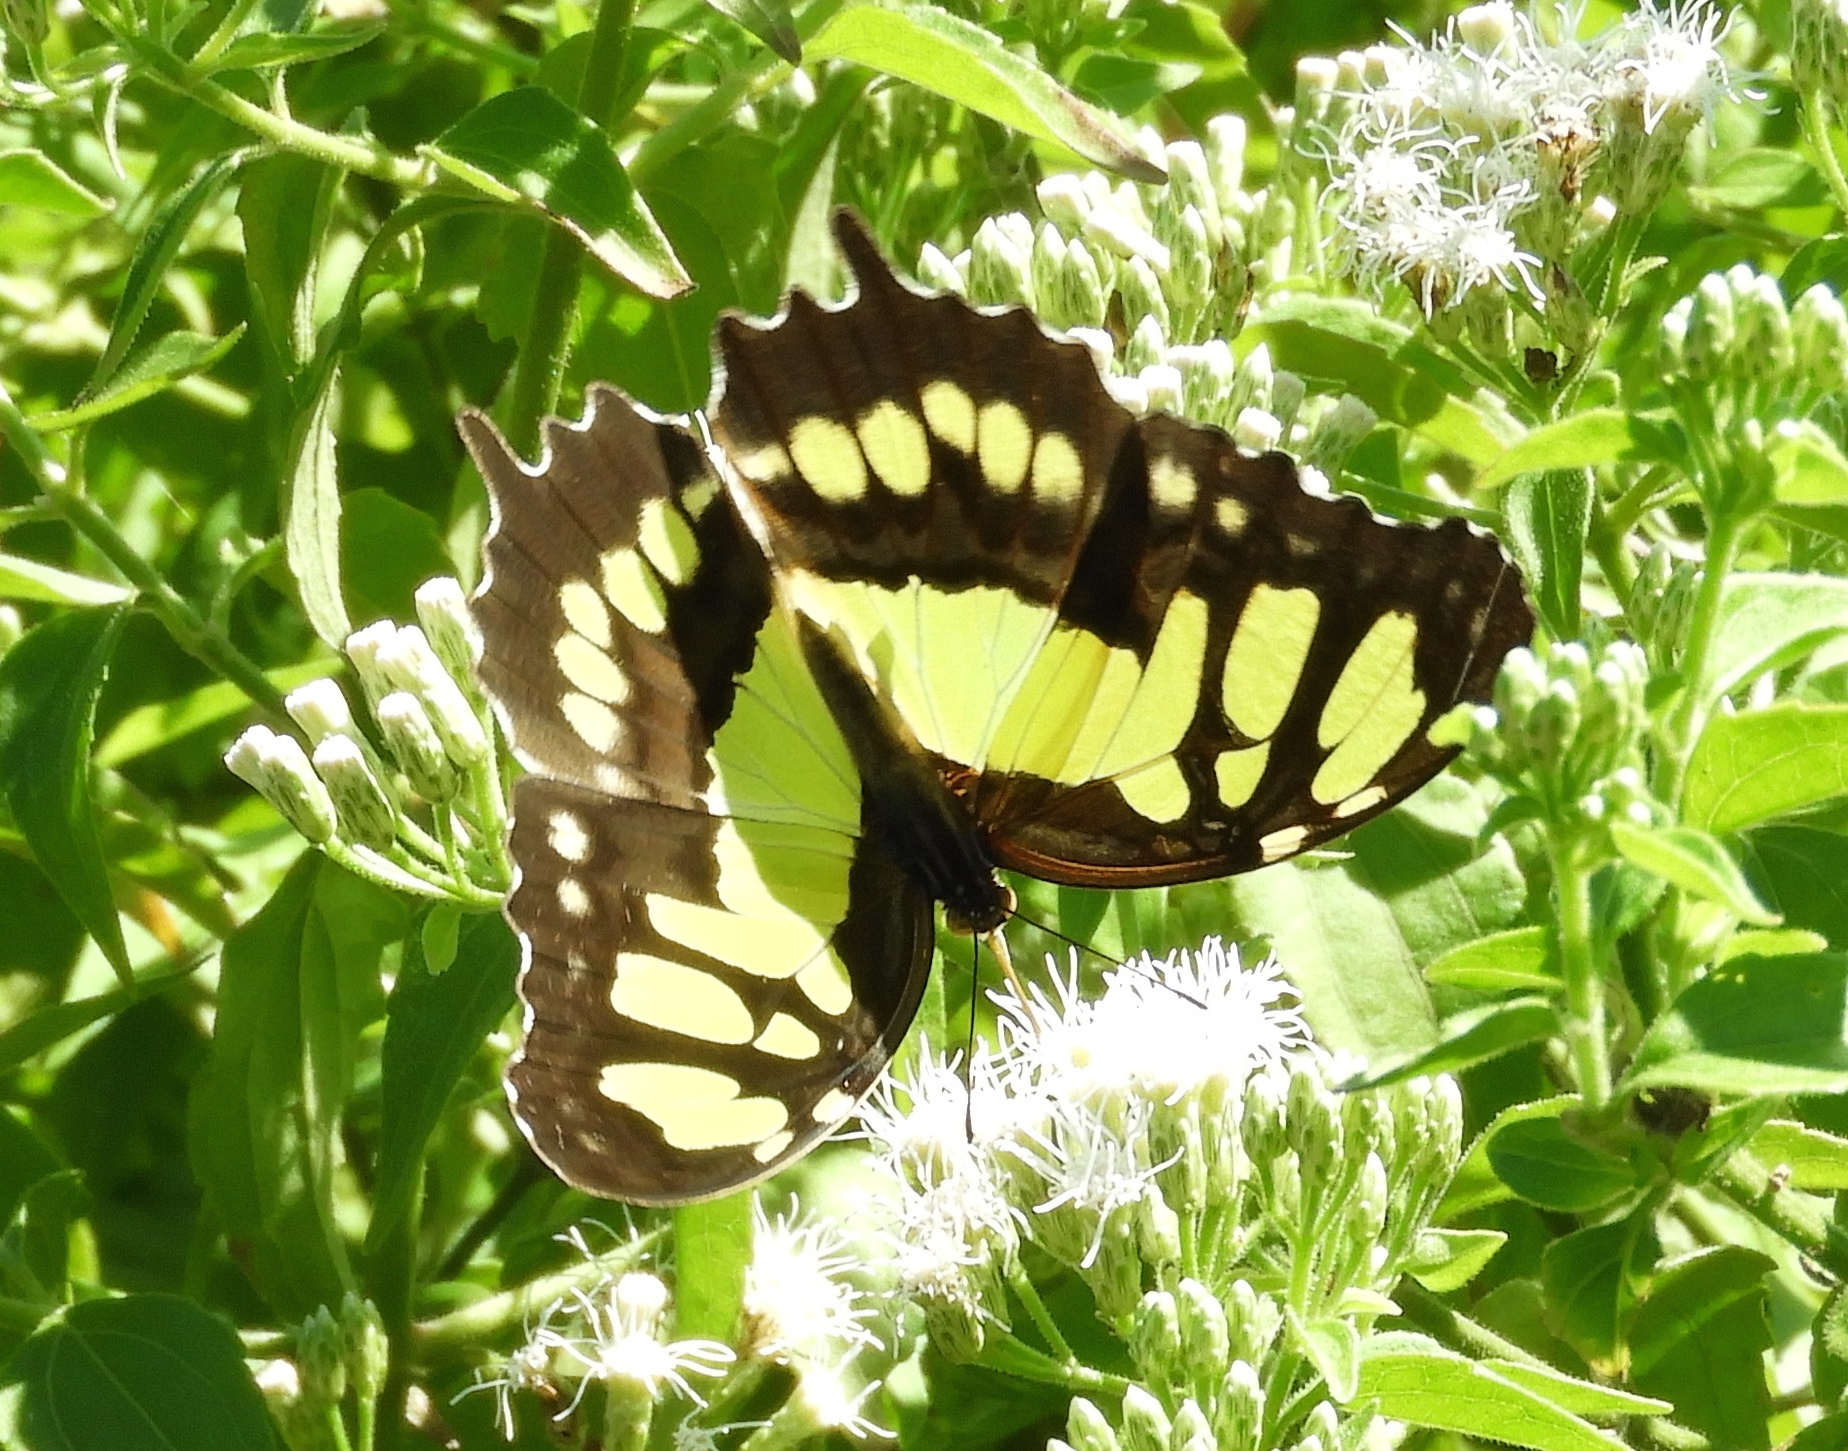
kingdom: Animalia
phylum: Arthropoda
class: Insecta
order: Lepidoptera
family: Nymphalidae
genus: Siproeta
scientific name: Siproeta stelenes
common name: Malachite
